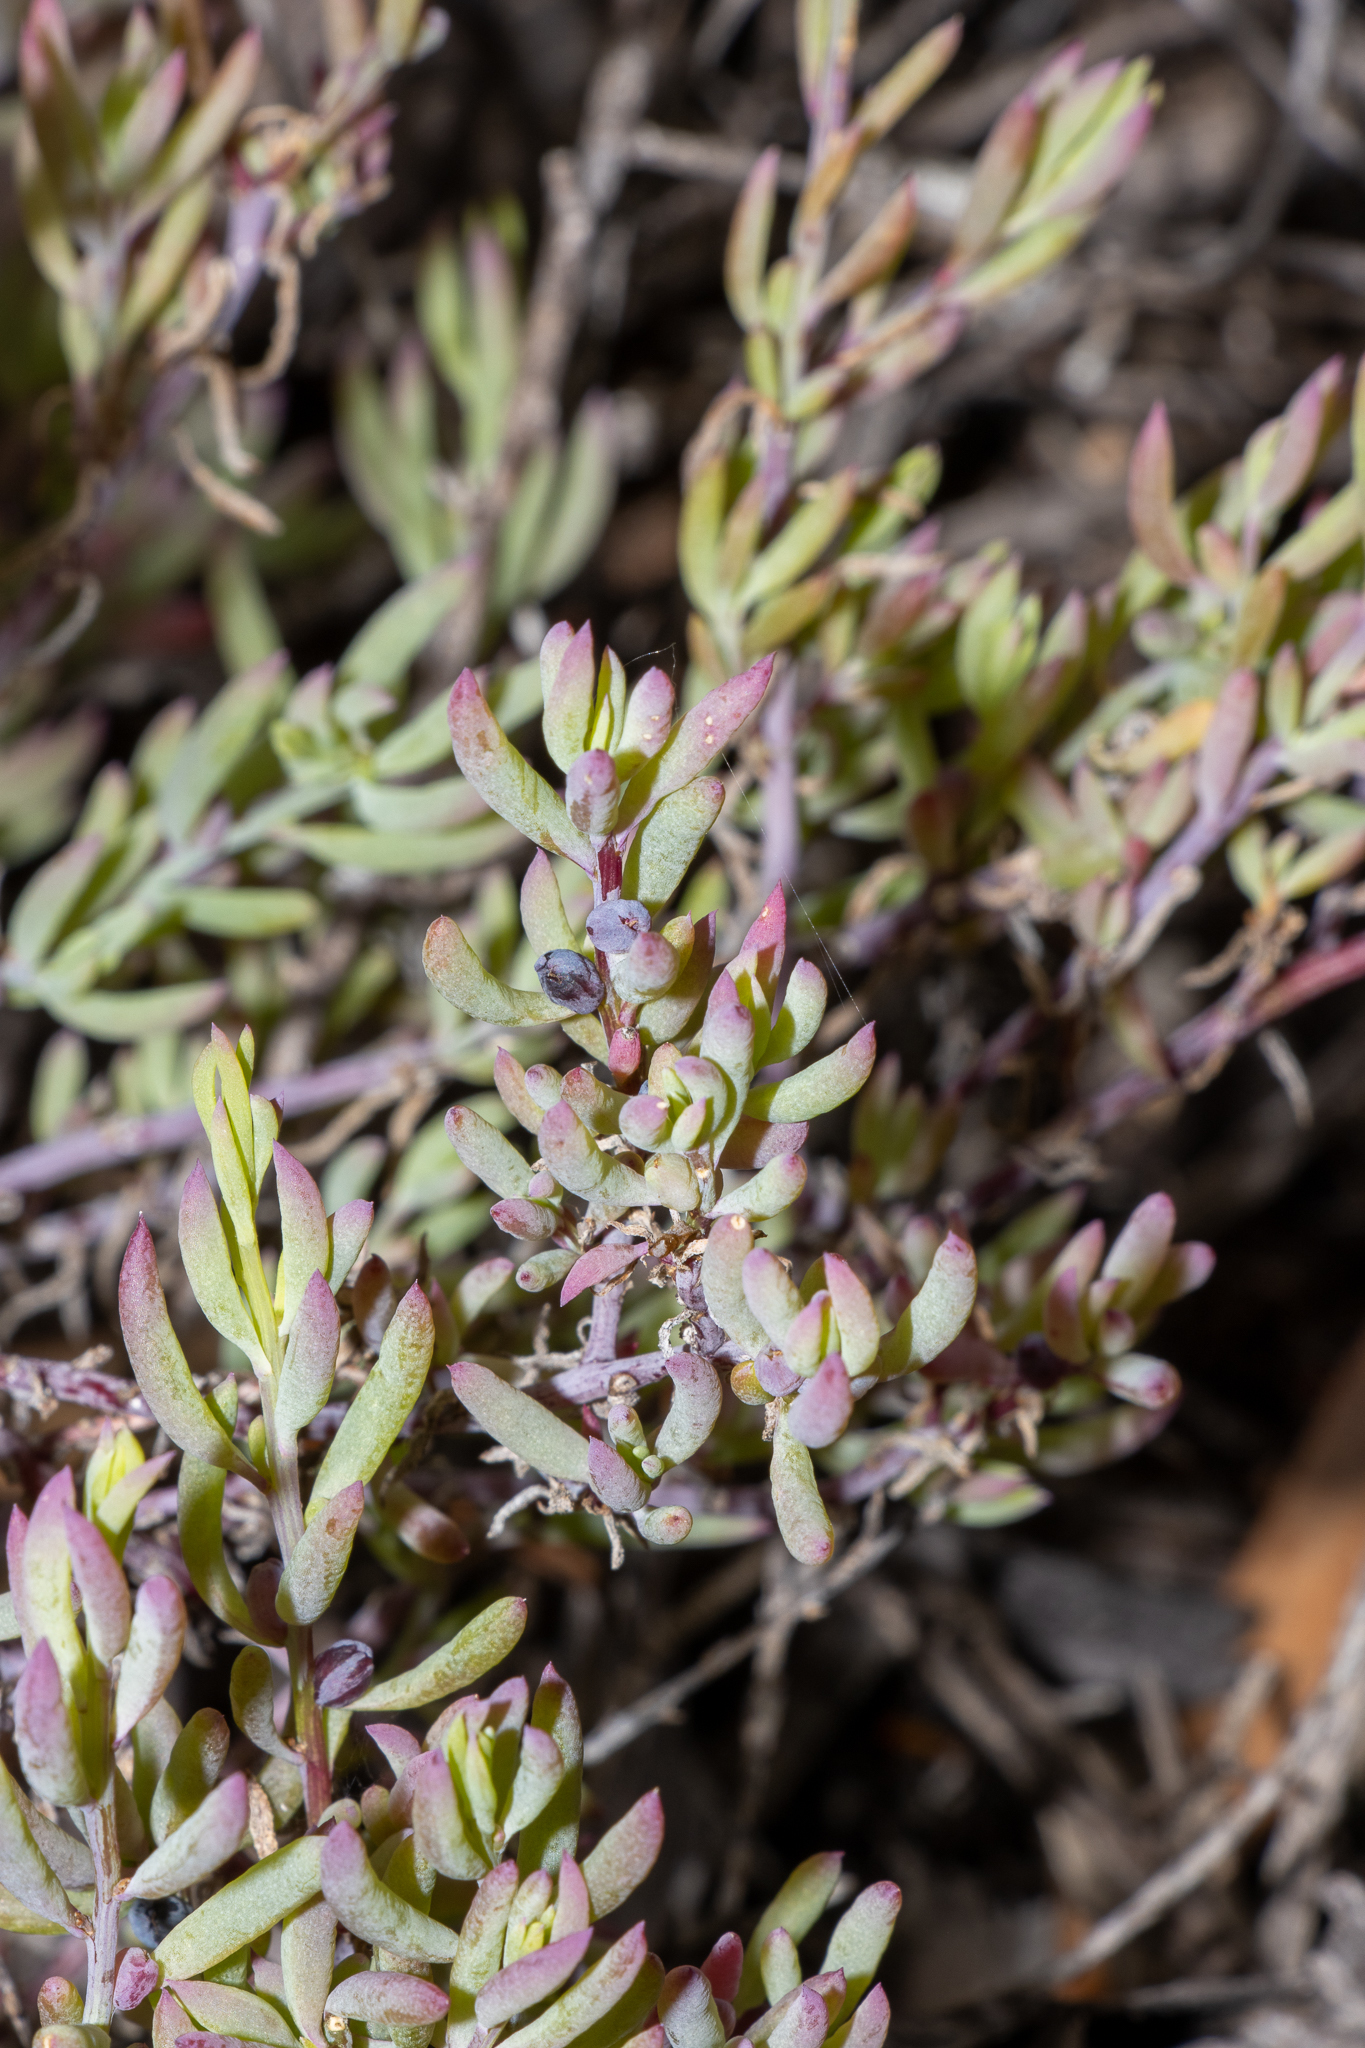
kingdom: Plantae
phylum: Tracheophyta
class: Magnoliopsida
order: Caryophyllales
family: Amaranthaceae
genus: Threlkeldia
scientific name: Threlkeldia diffusa
